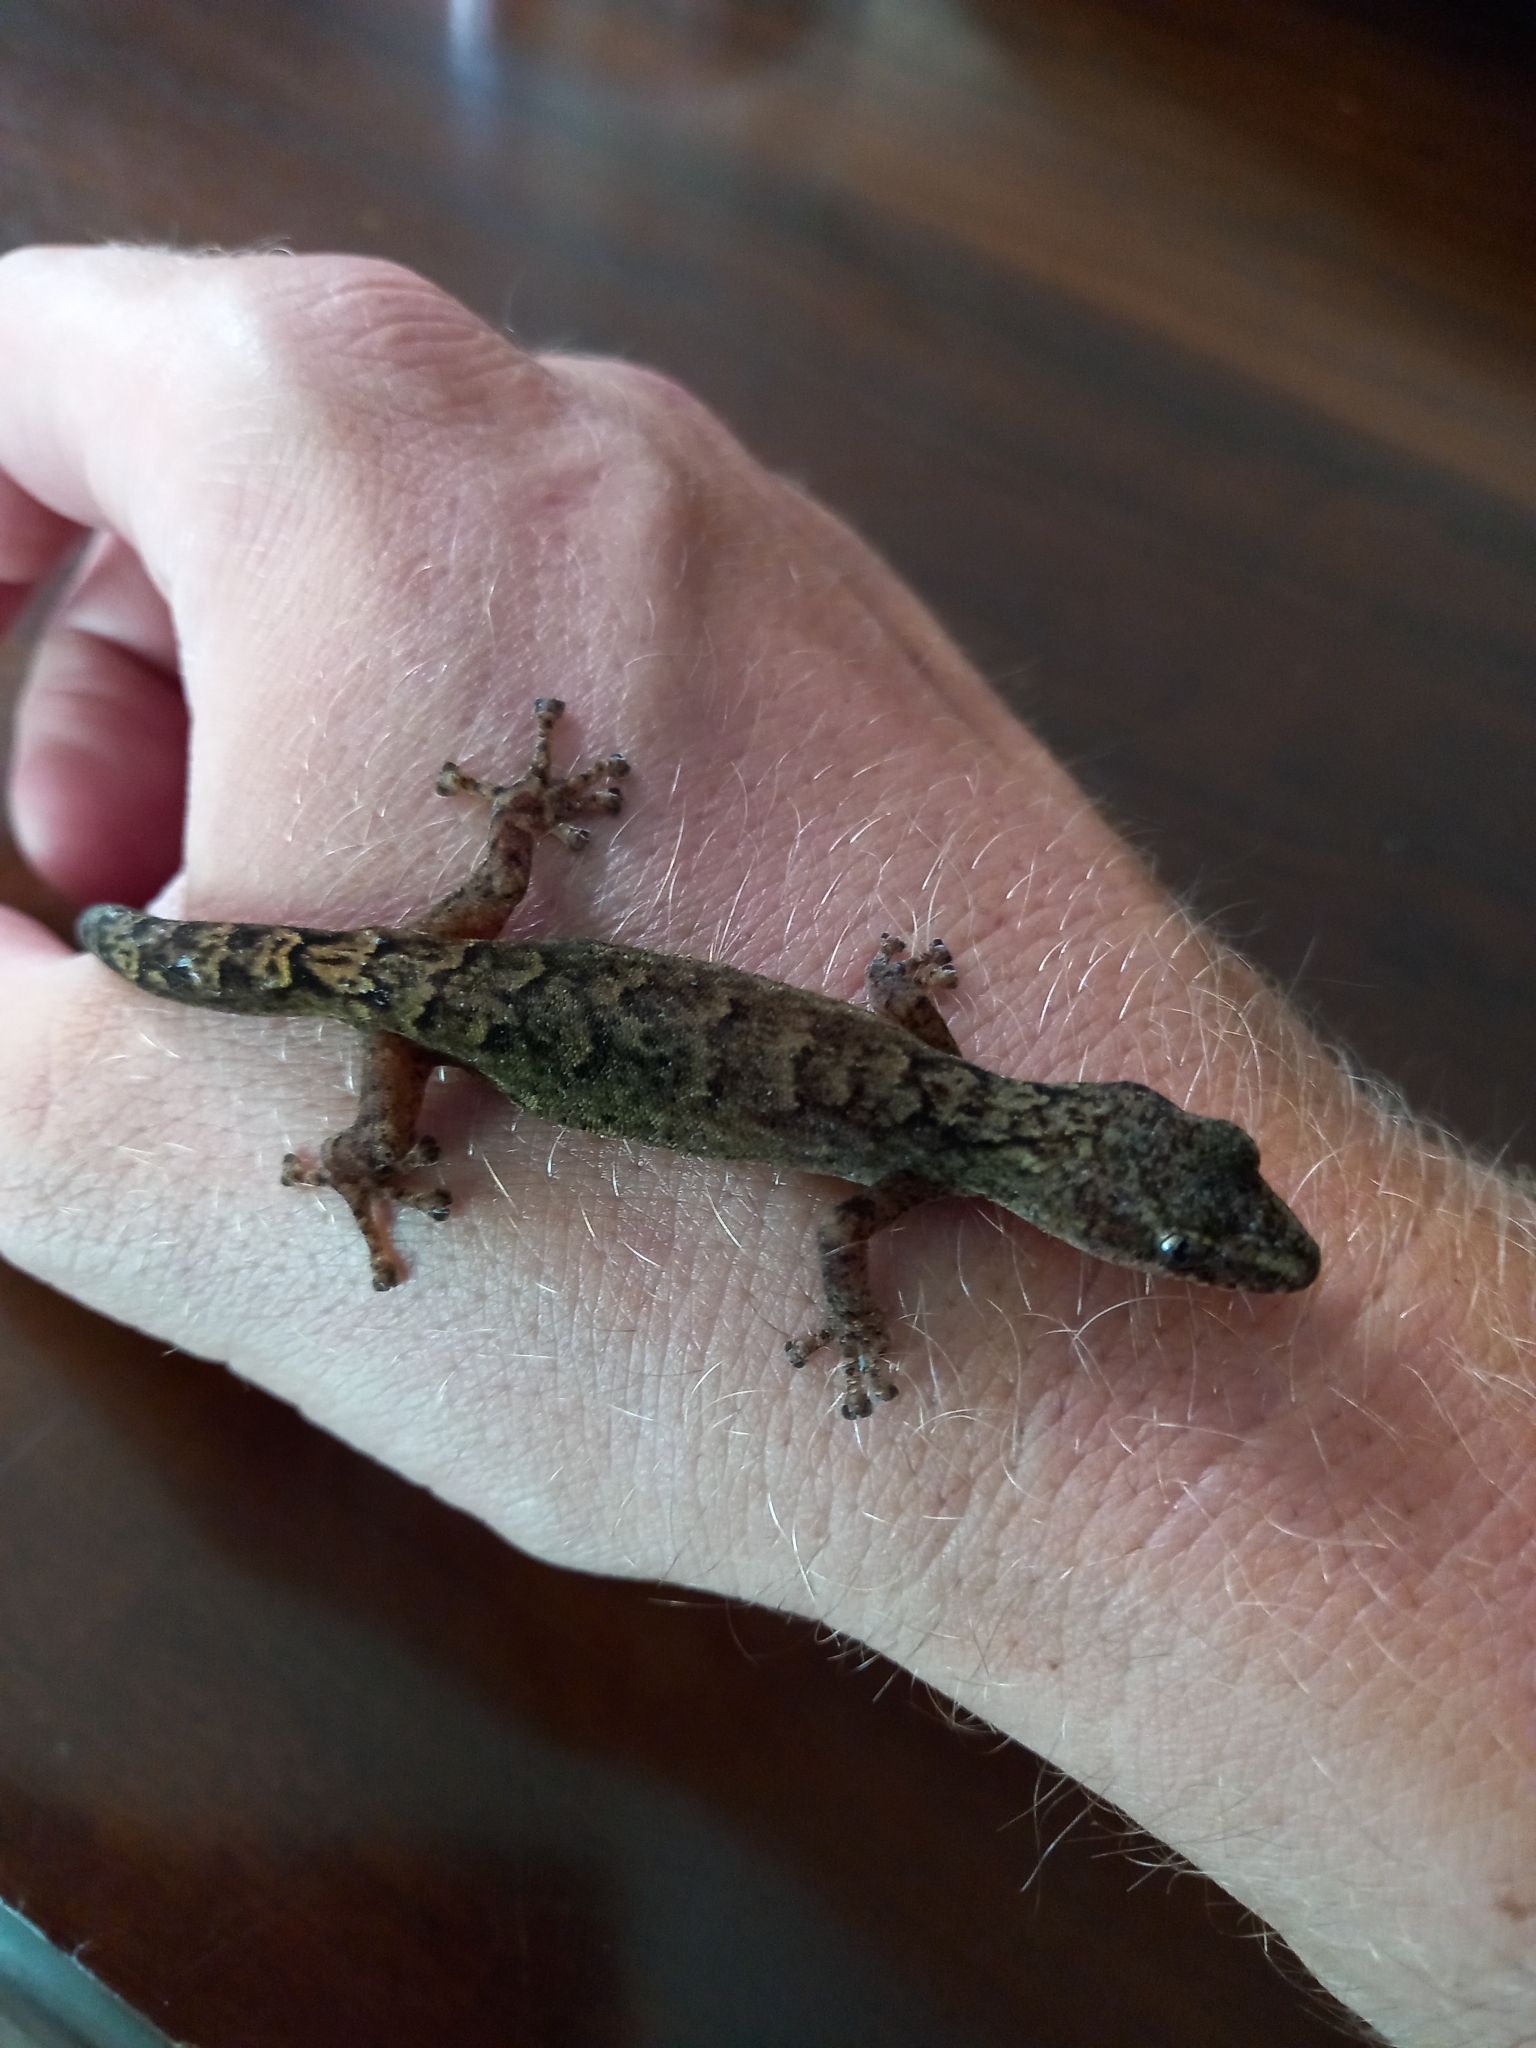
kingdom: Animalia
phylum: Chordata
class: Squamata
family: Gekkonidae
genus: Afrogecko
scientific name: Afrogecko porphyreus
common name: Marbled leaf-toed gecko
